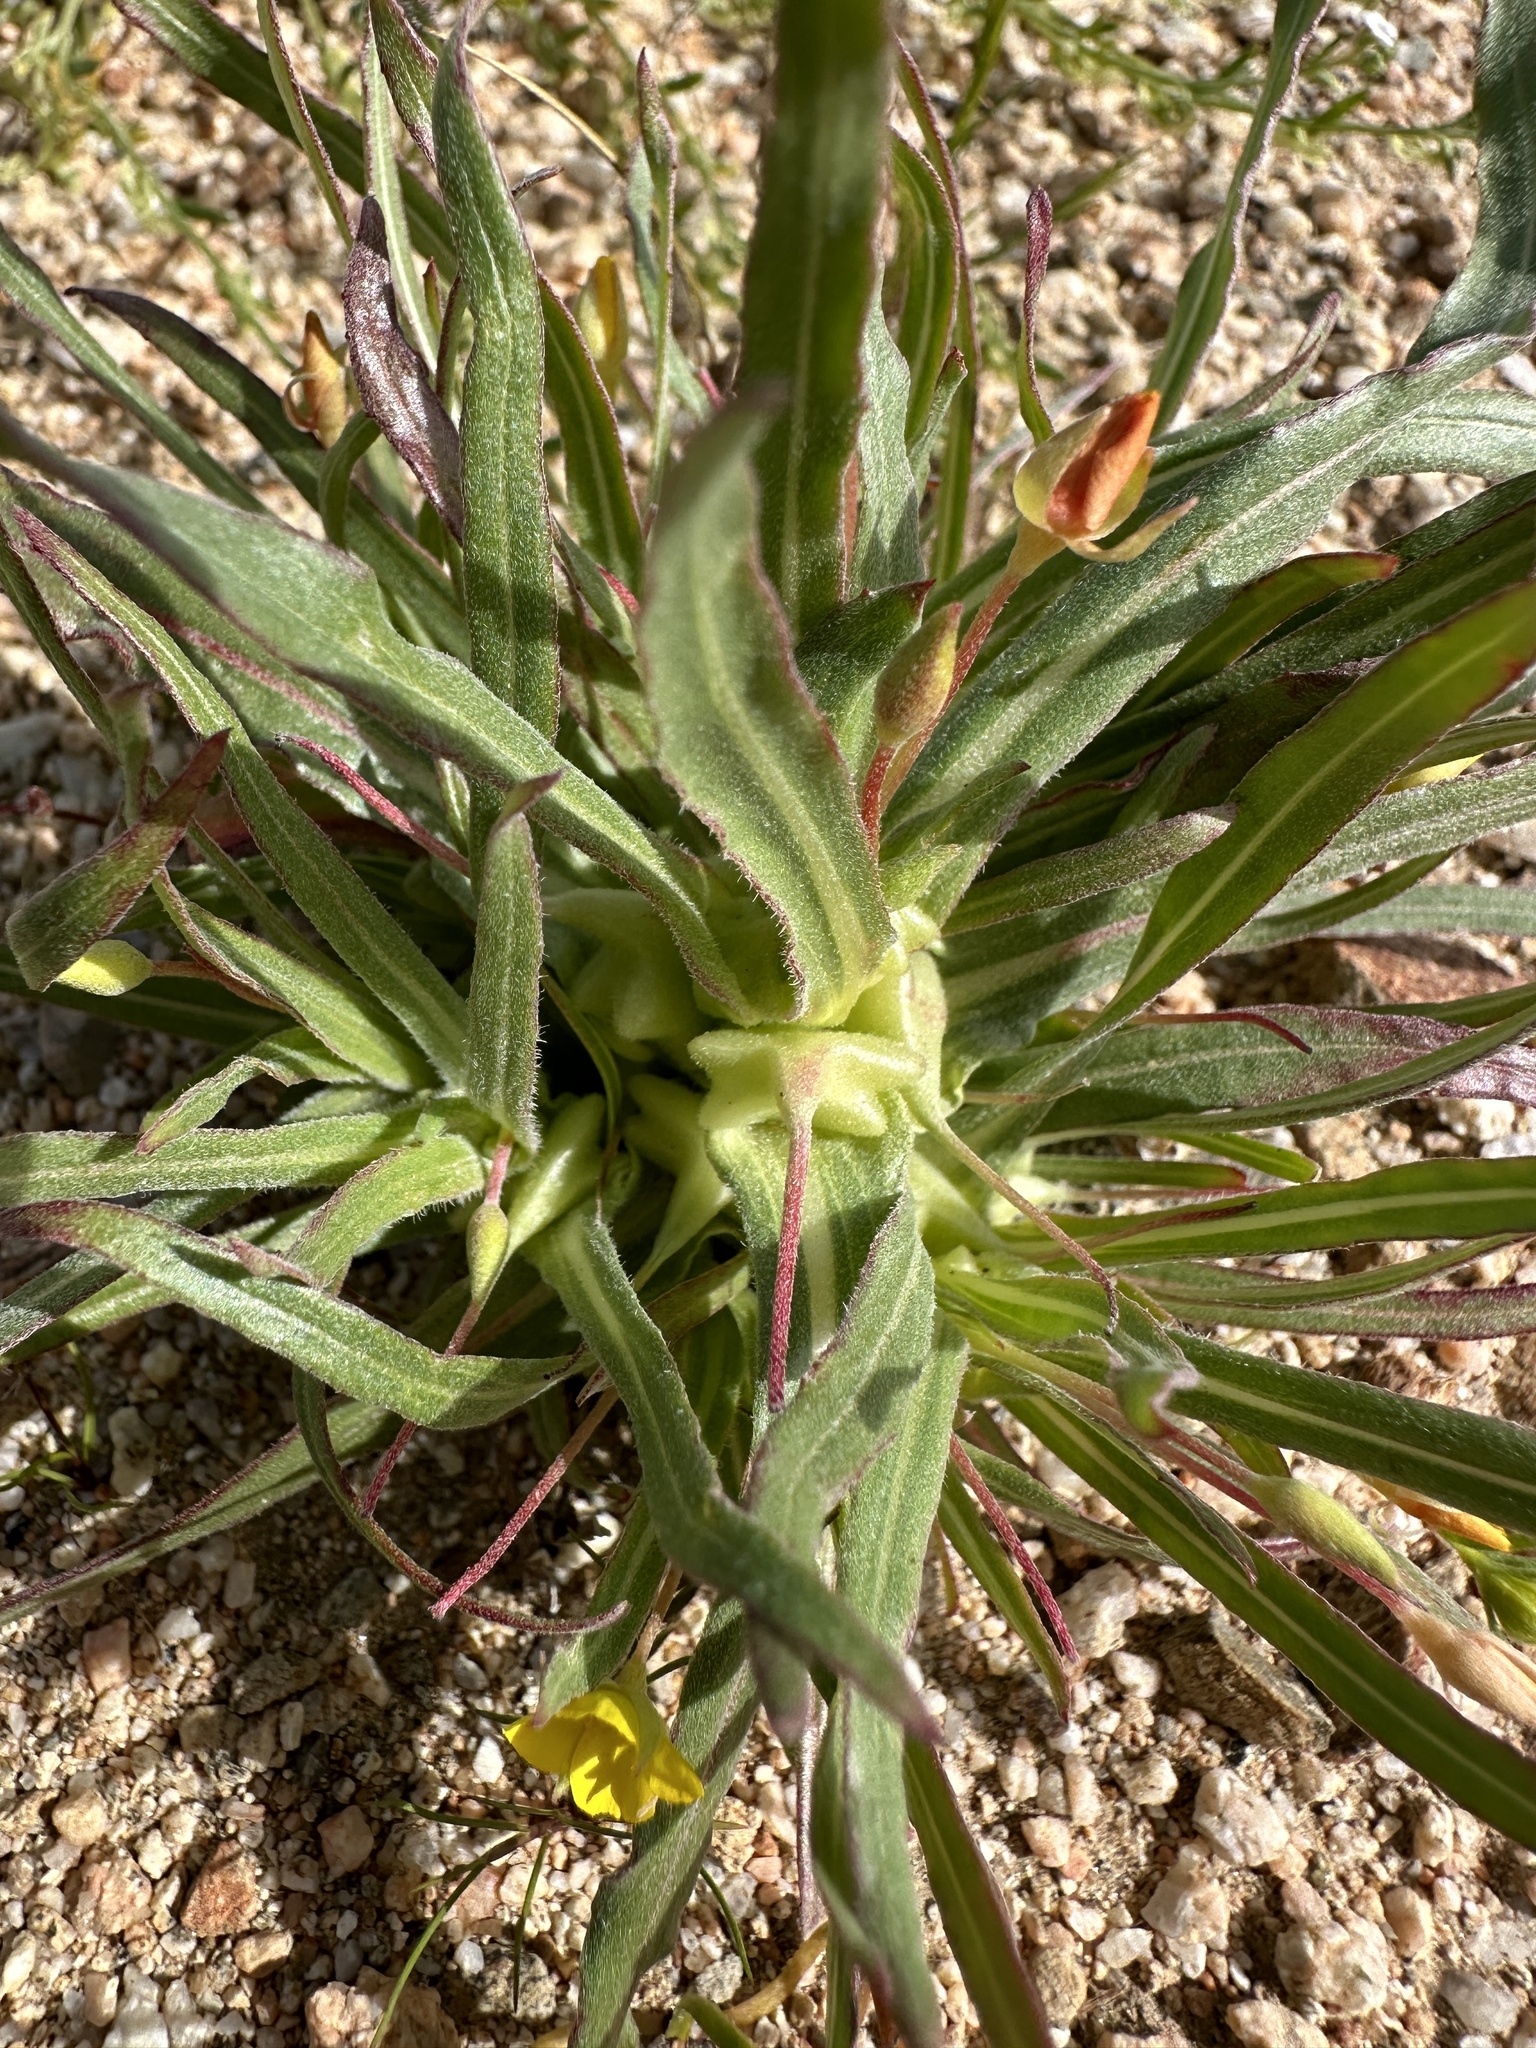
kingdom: Plantae
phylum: Tracheophyta
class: Magnoliopsida
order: Myrtales
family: Onagraceae
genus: Tetrapteron
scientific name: Tetrapteron palmeri
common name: Palmer's evening primrose
